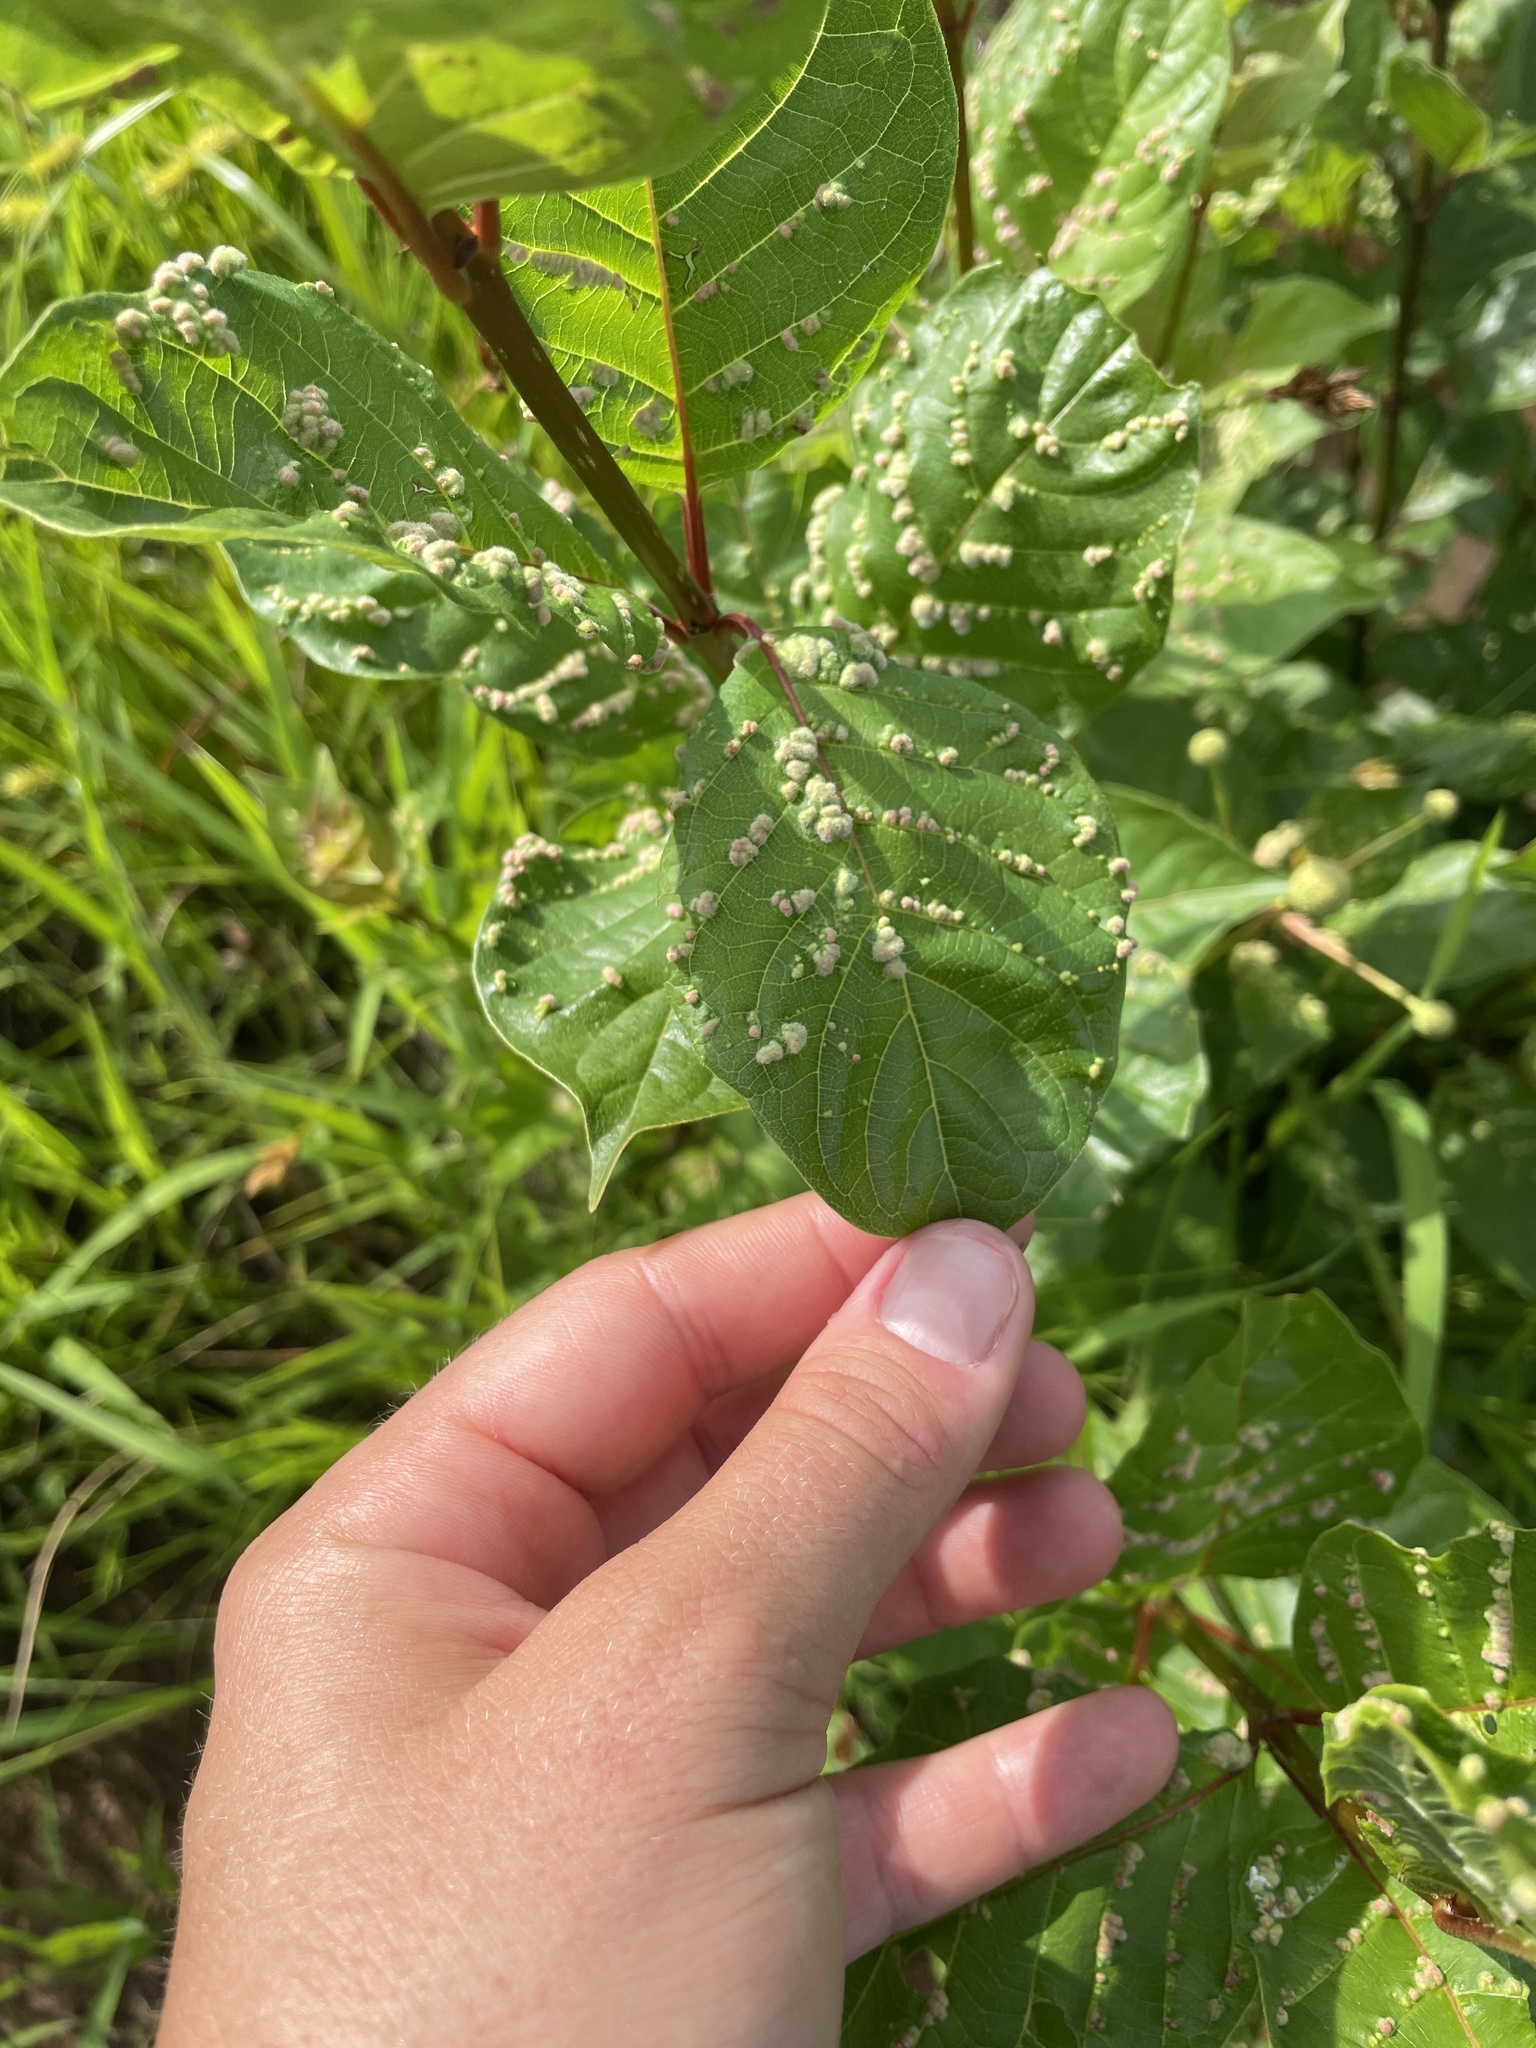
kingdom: Plantae
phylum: Tracheophyta
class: Magnoliopsida
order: Gentianales
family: Rubiaceae
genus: Cephalanthus
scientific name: Cephalanthus occidentalis
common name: Button-willow
